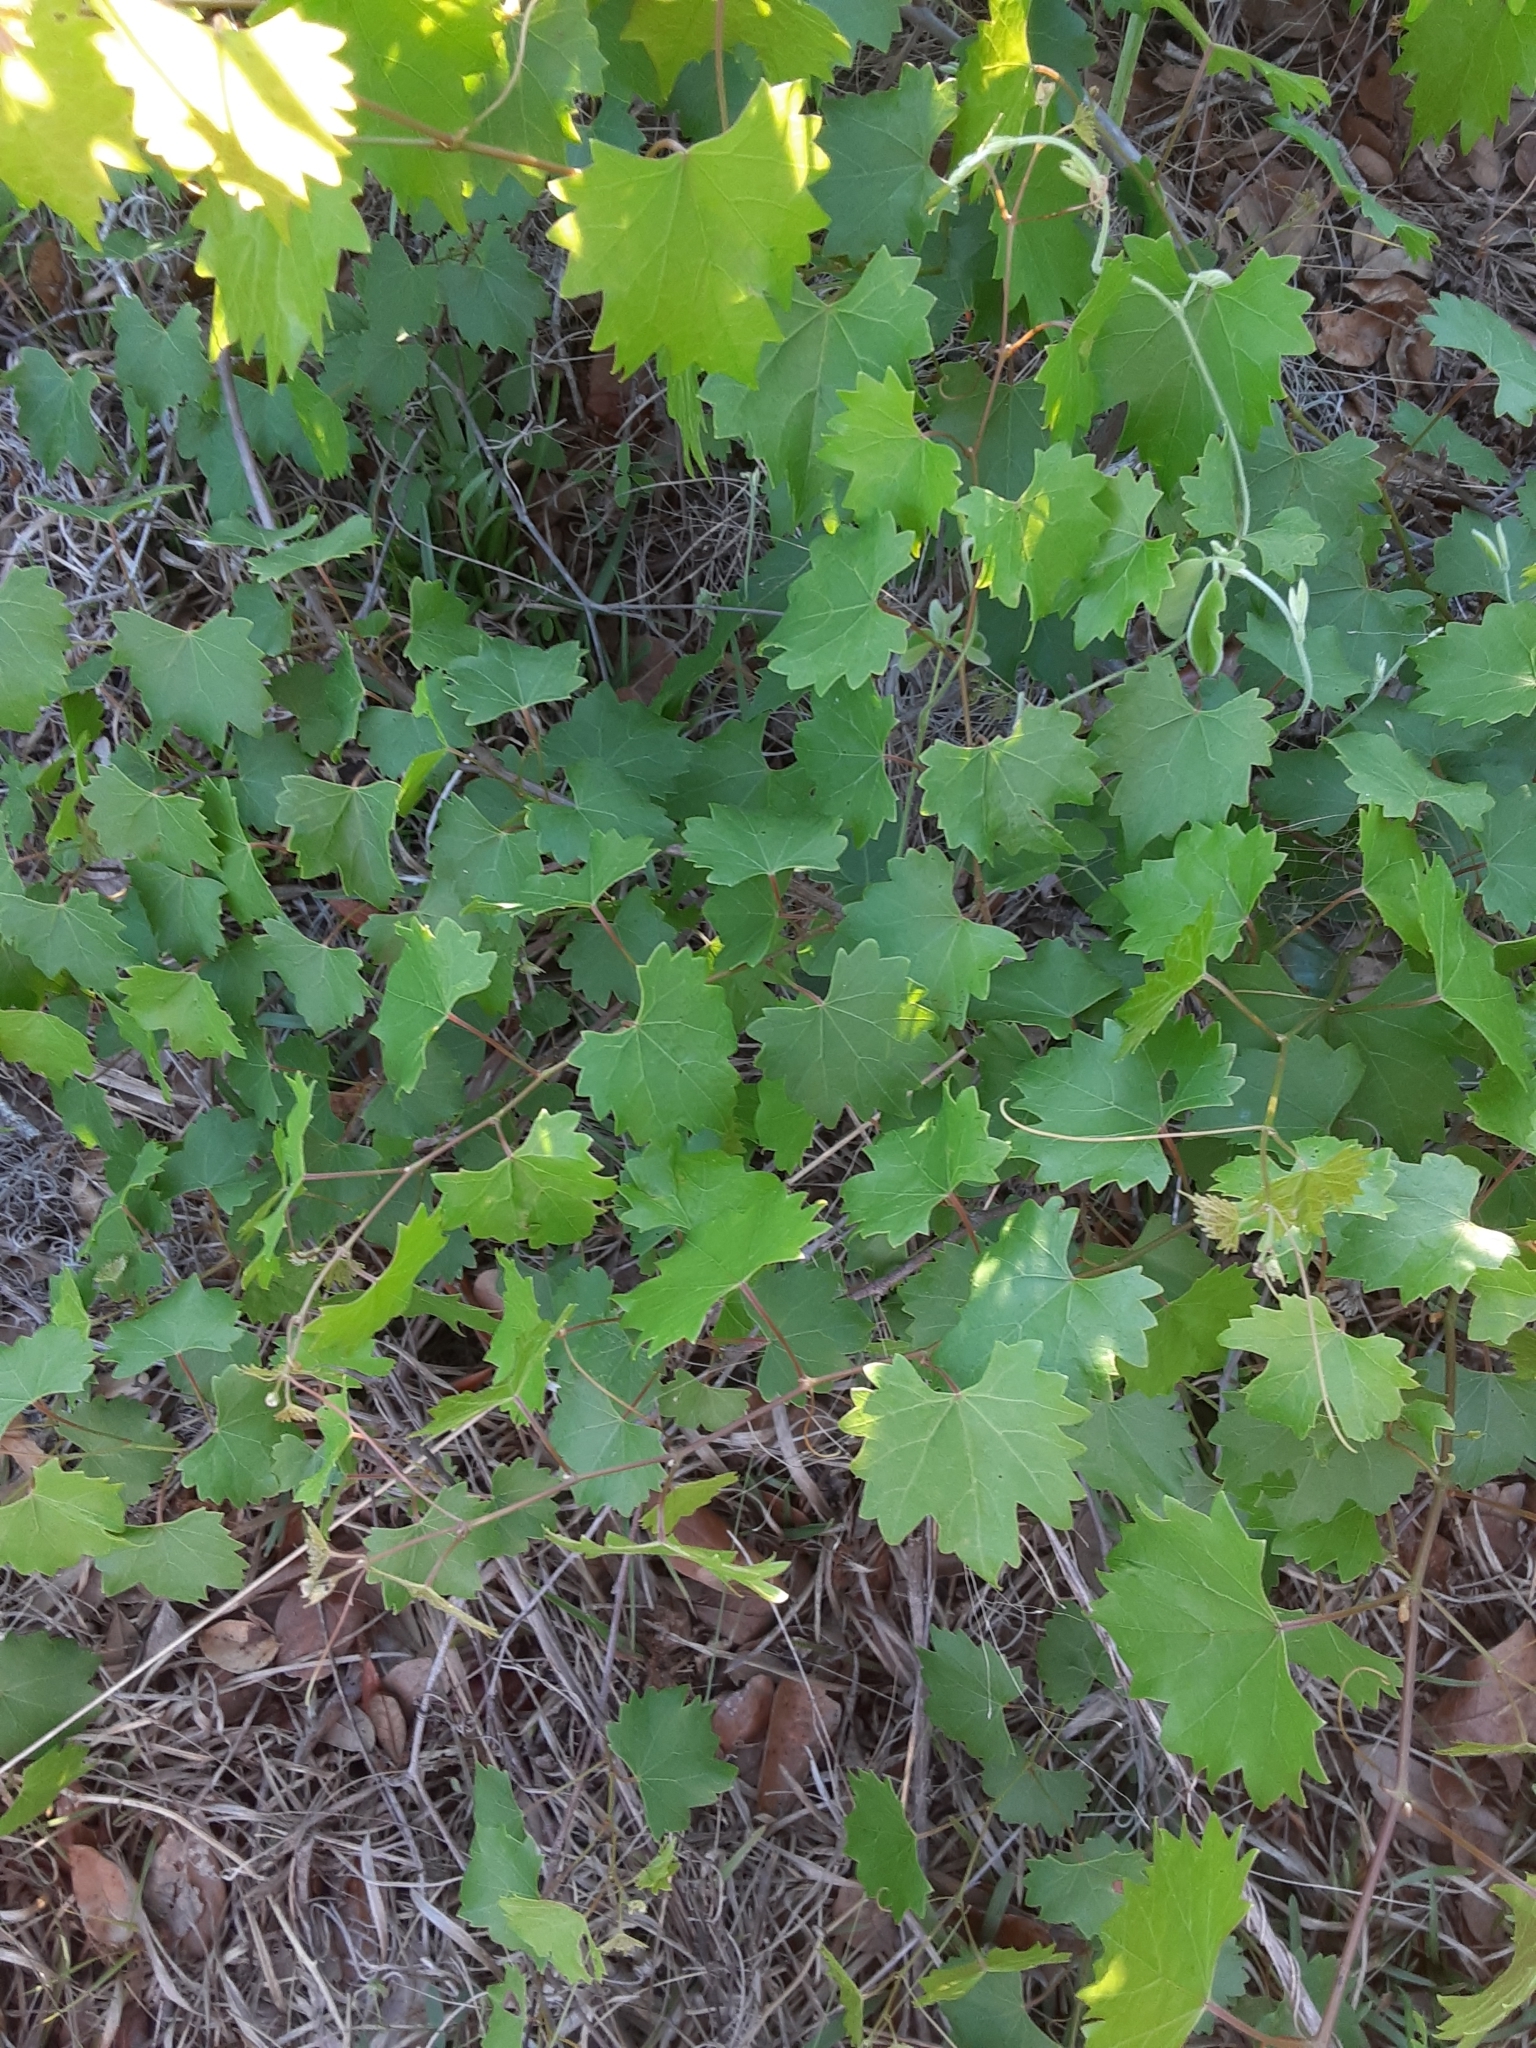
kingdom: Plantae
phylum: Tracheophyta
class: Magnoliopsida
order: Vitales
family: Vitaceae
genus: Vitis
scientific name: Vitis rotundifolia
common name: Muscadine grape
